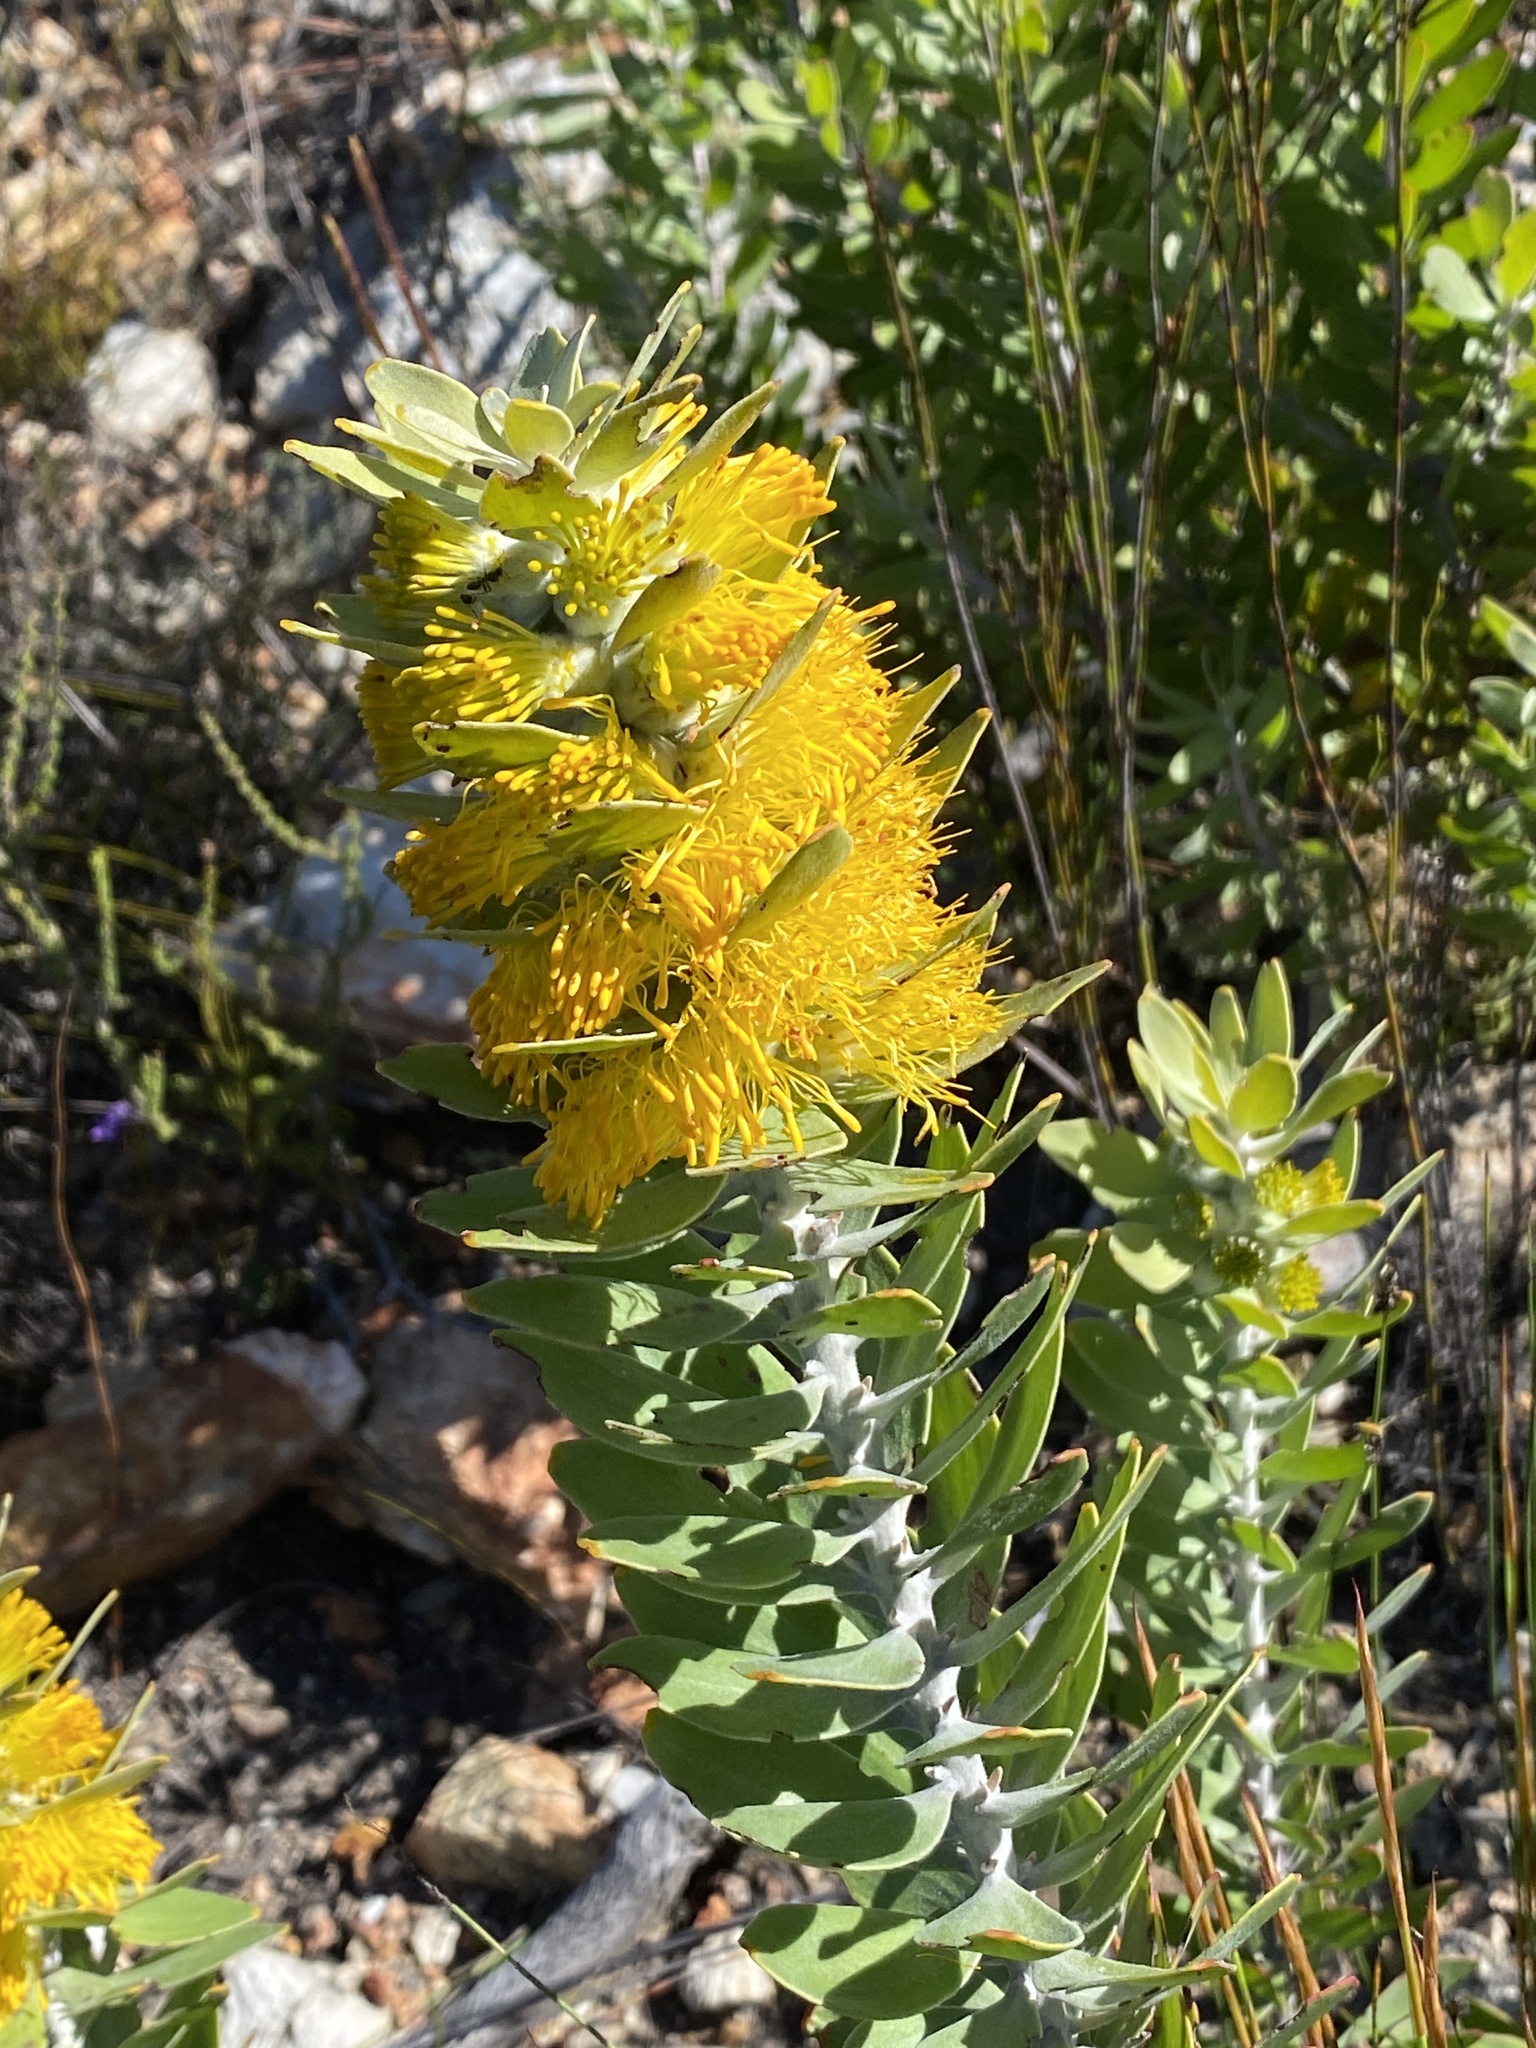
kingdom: Plantae
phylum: Tracheophyta
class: Magnoliopsida
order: Proteales
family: Proteaceae
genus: Mimetes
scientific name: Mimetes chrysanthus
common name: Golden pagoda
